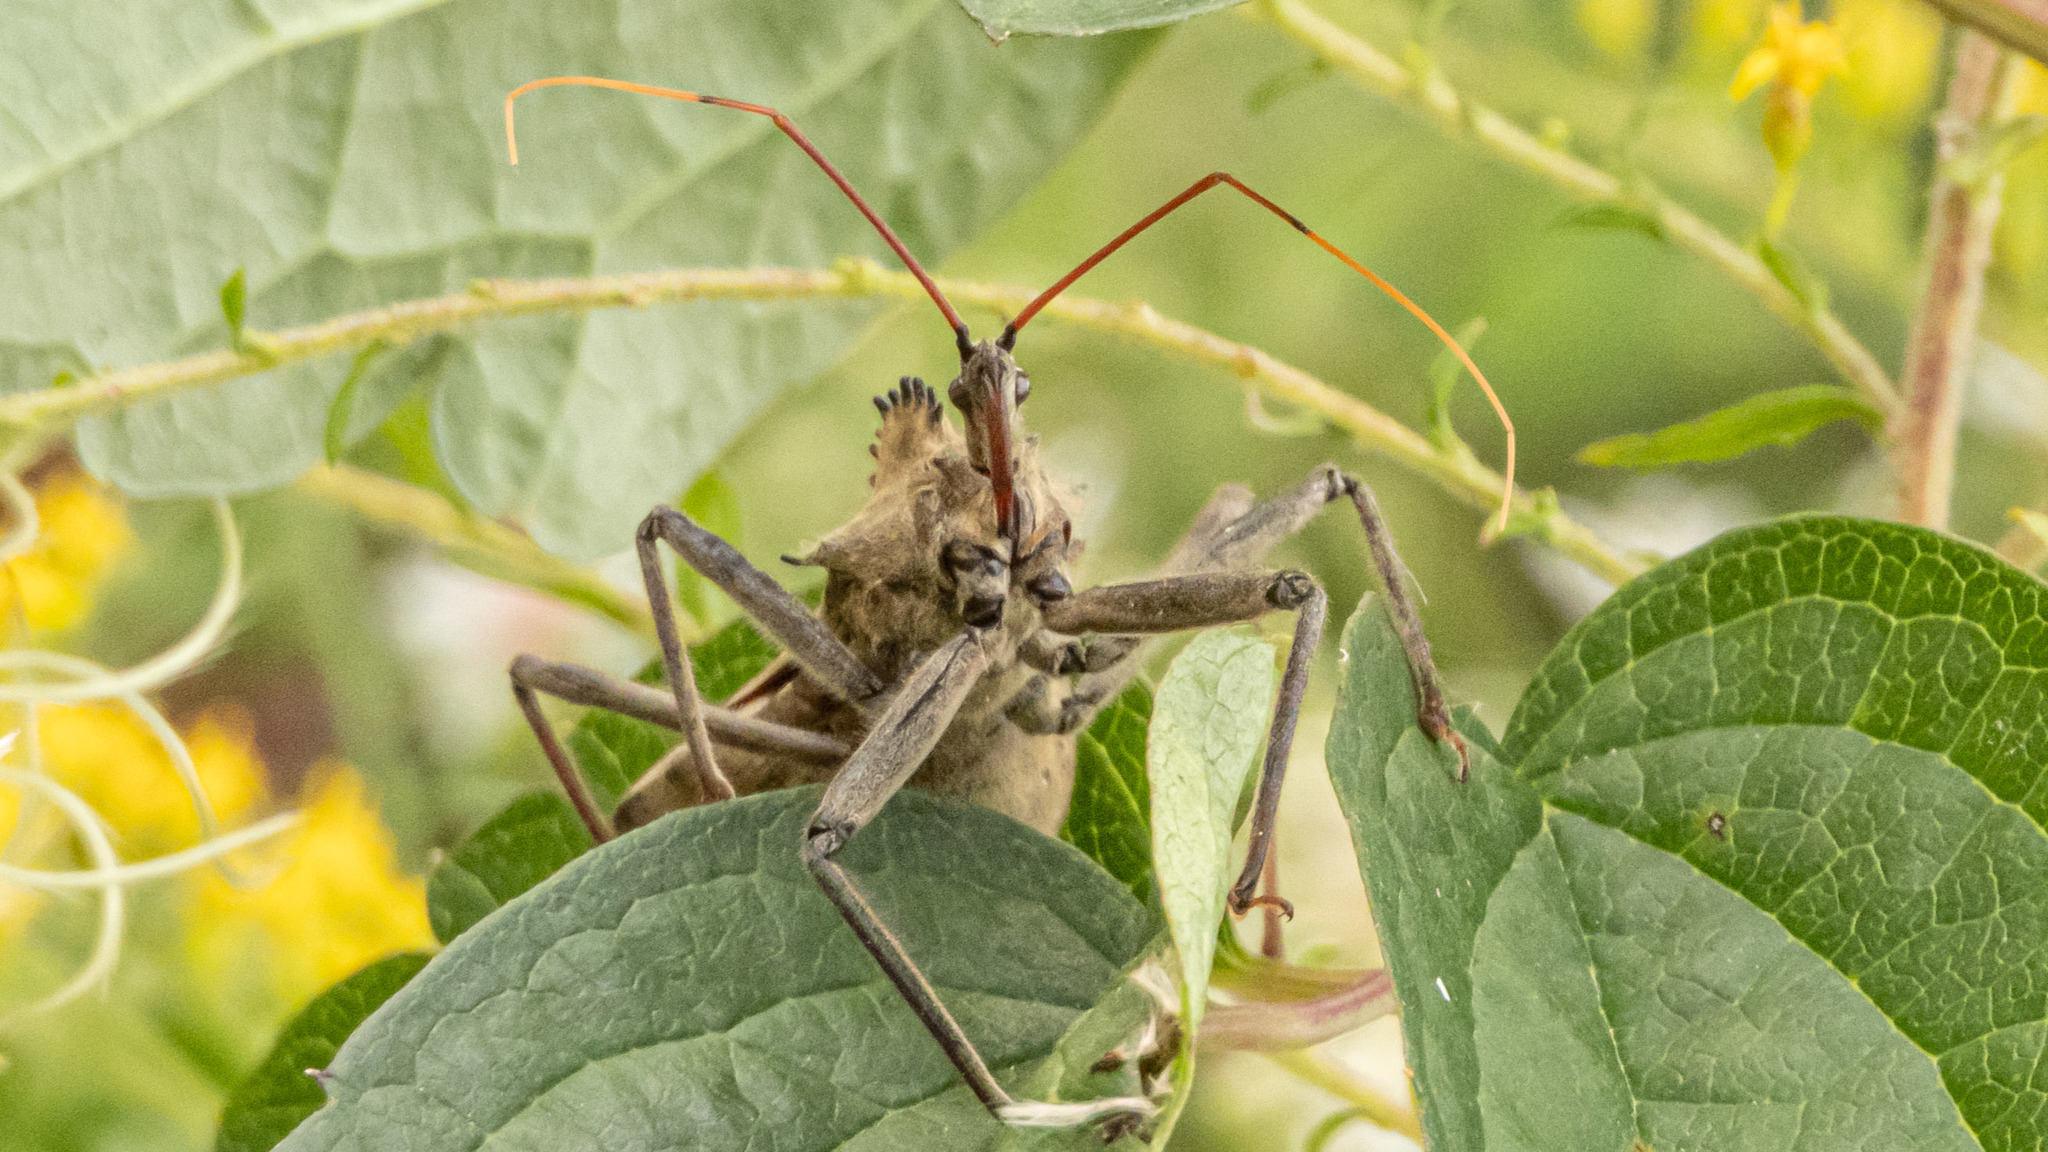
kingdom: Animalia
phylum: Arthropoda
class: Insecta
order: Hemiptera
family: Reduviidae
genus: Arilus
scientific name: Arilus cristatus
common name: North american wheel bug
